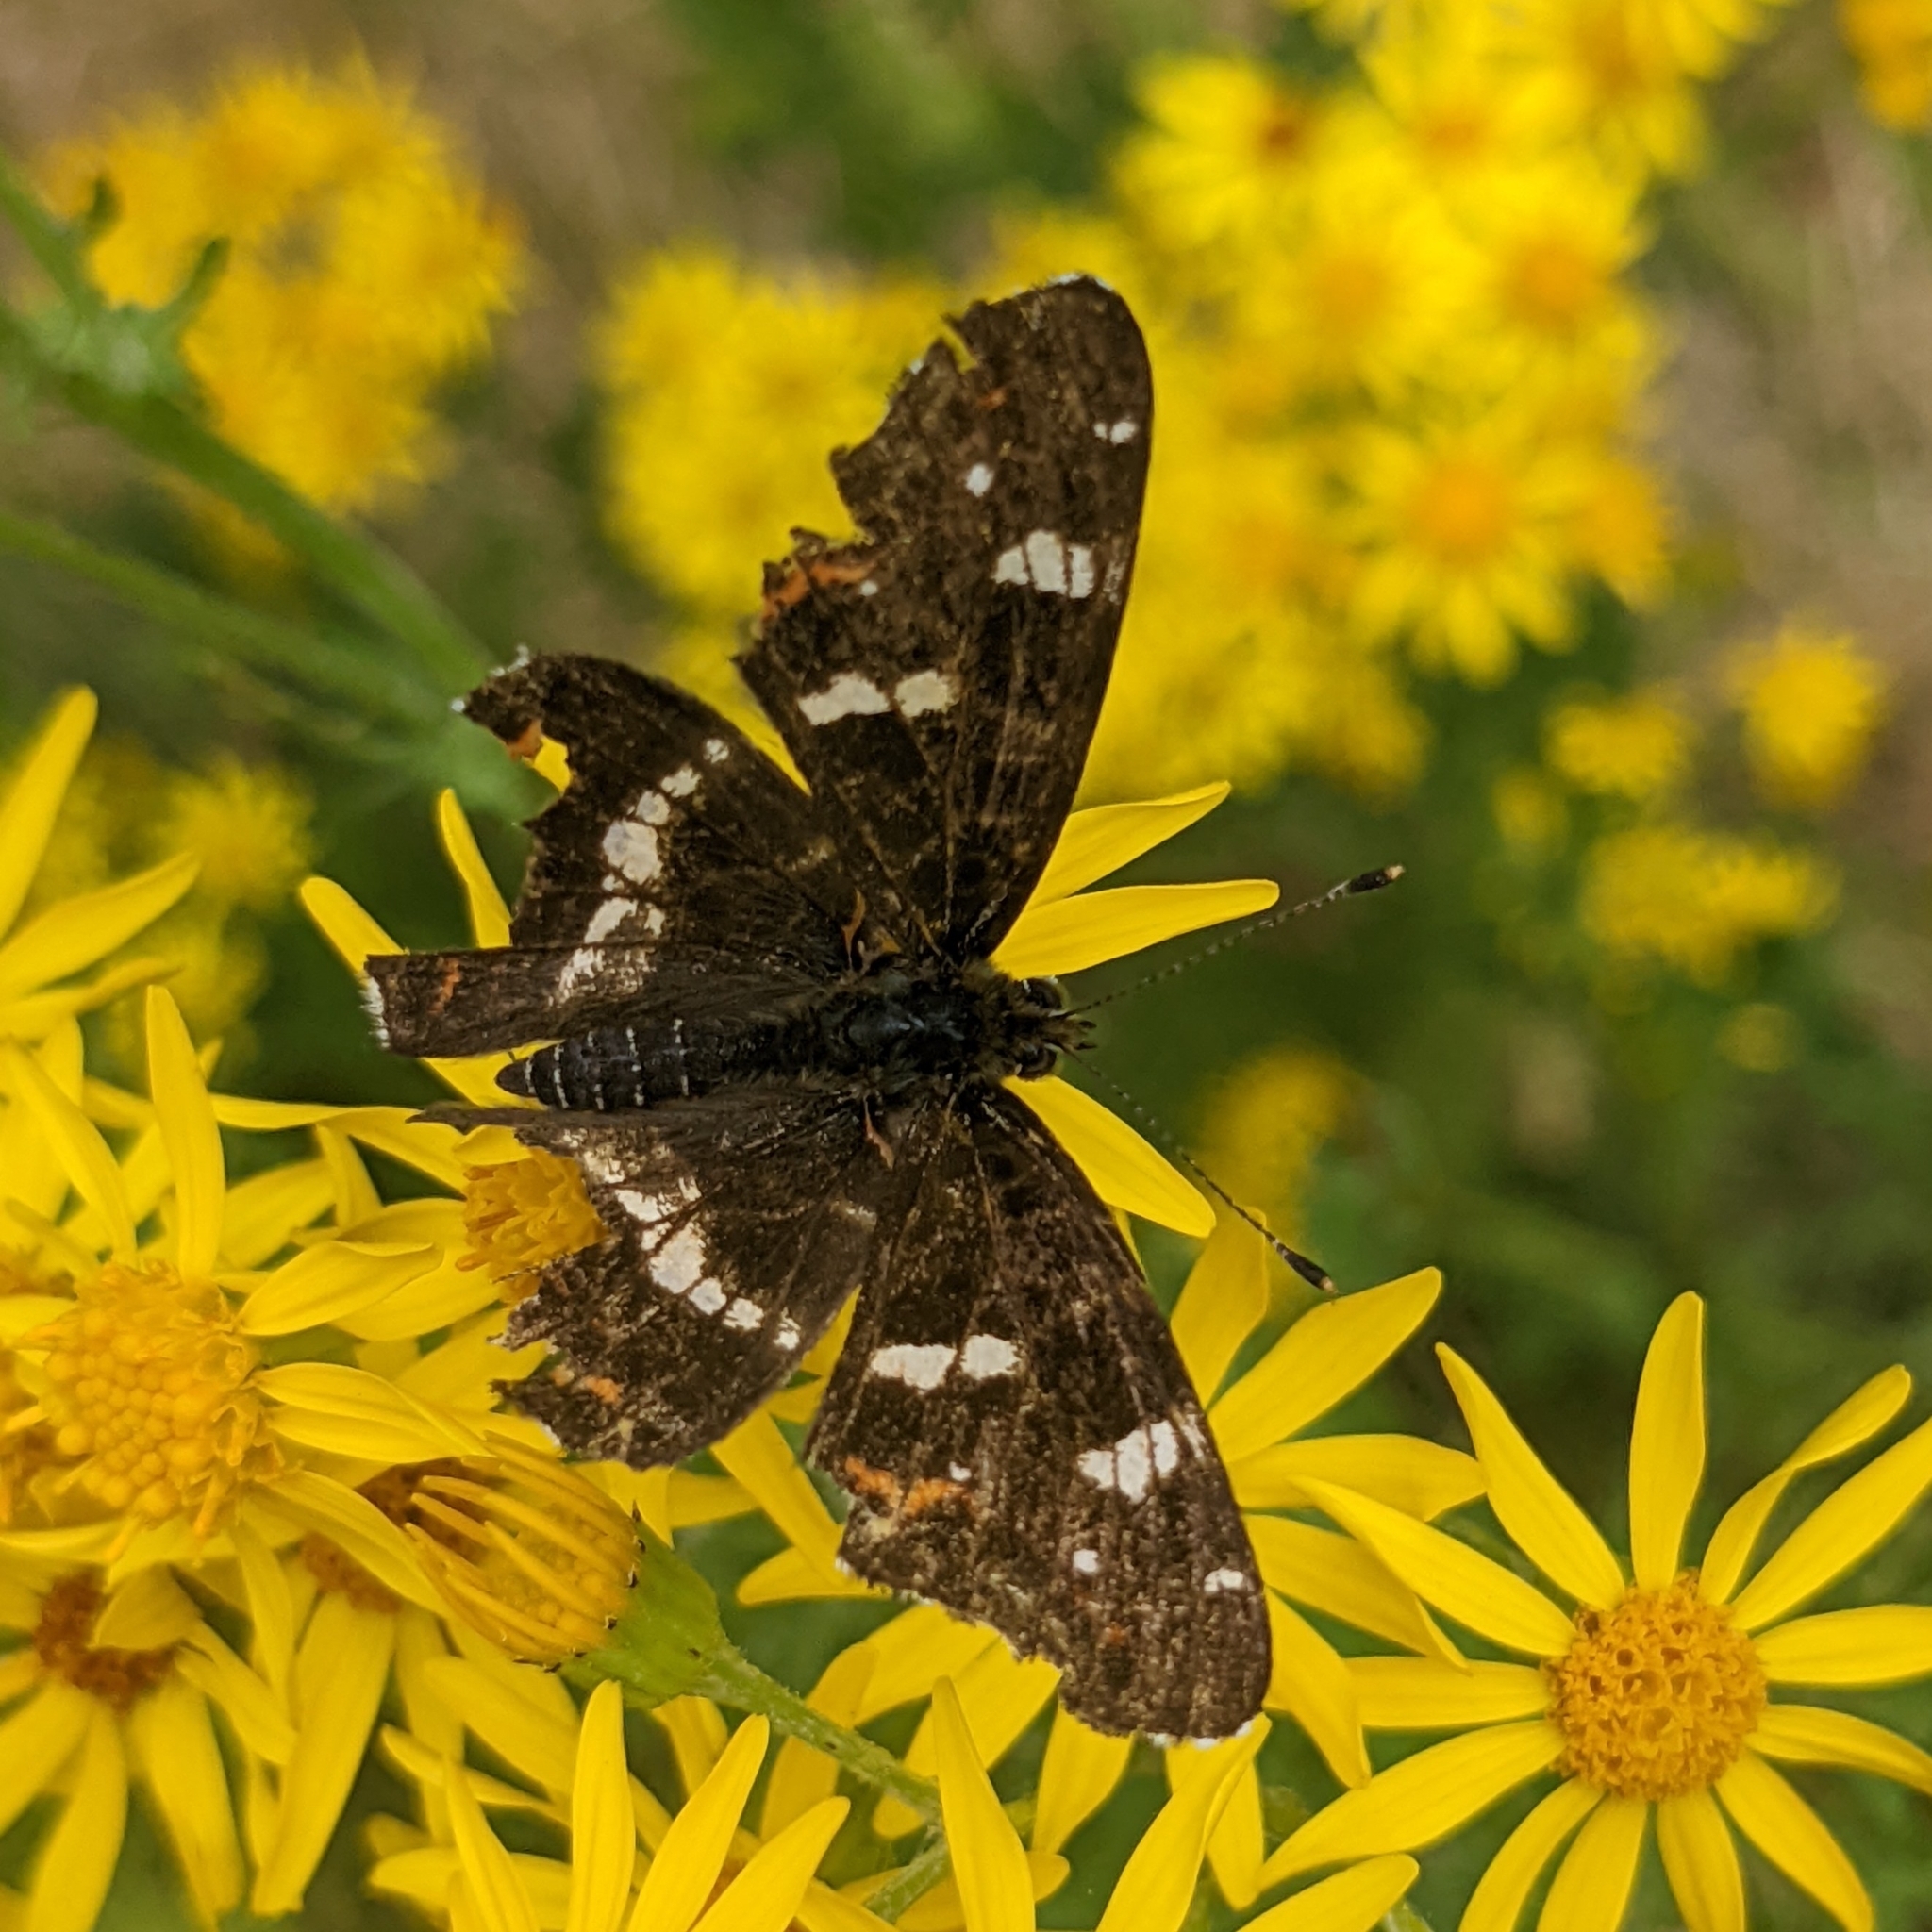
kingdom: Animalia
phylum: Arthropoda
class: Insecta
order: Lepidoptera
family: Nymphalidae
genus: Araschnia
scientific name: Araschnia levana
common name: Map butterfly
